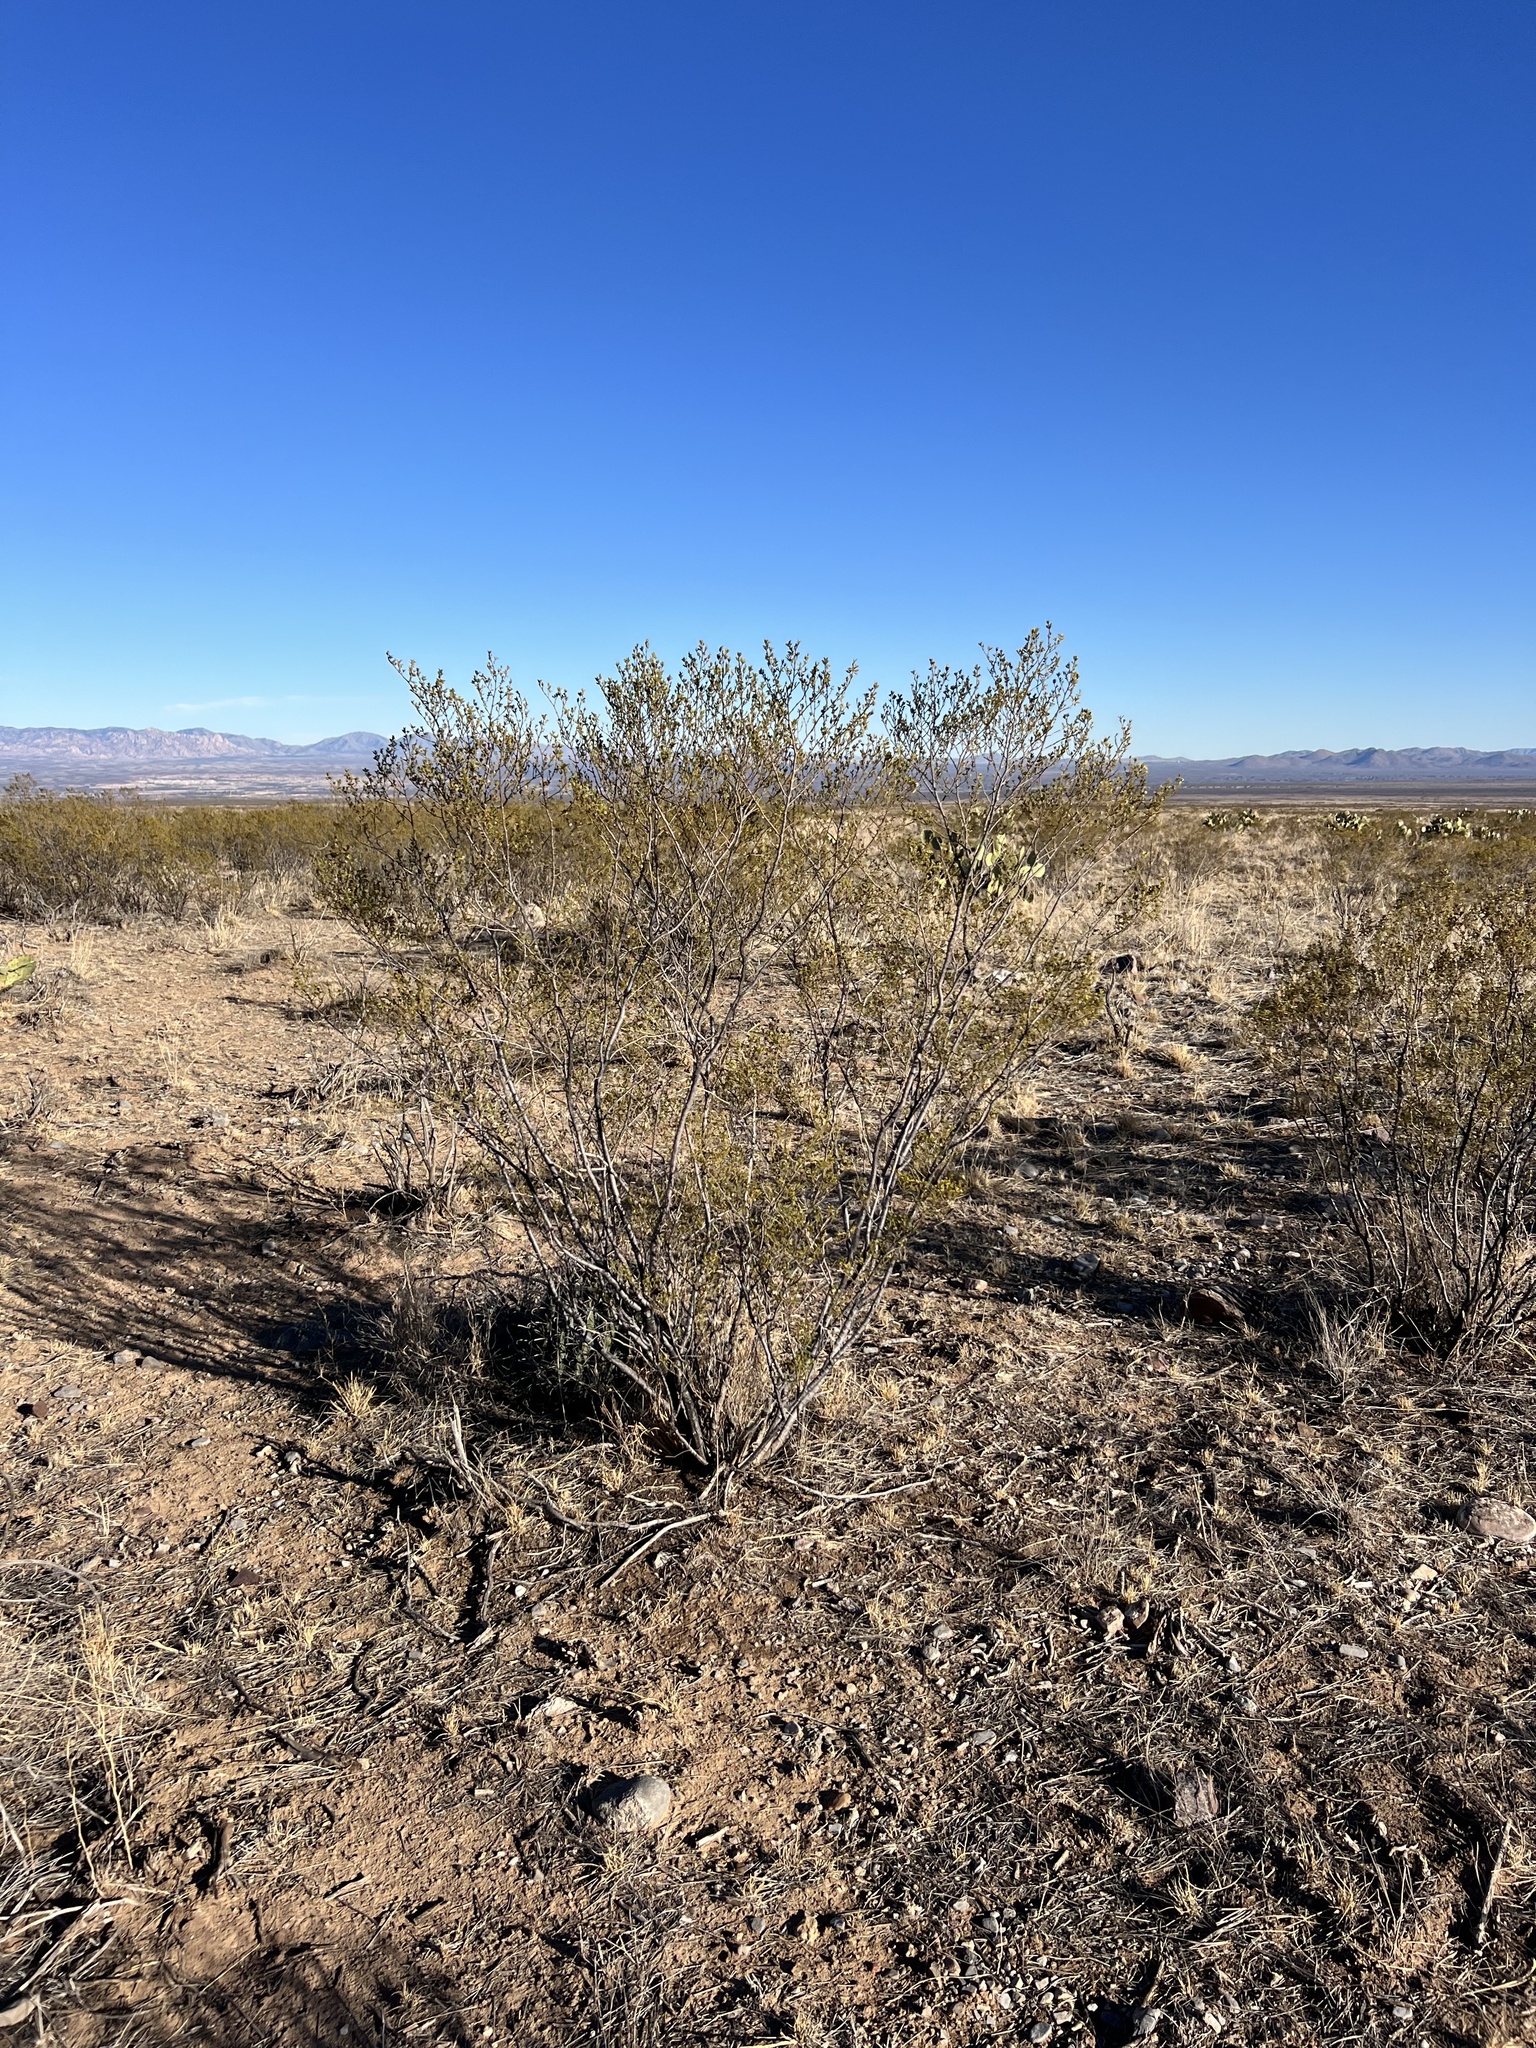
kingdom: Plantae
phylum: Tracheophyta
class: Magnoliopsida
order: Zygophyllales
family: Zygophyllaceae
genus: Larrea
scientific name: Larrea tridentata
